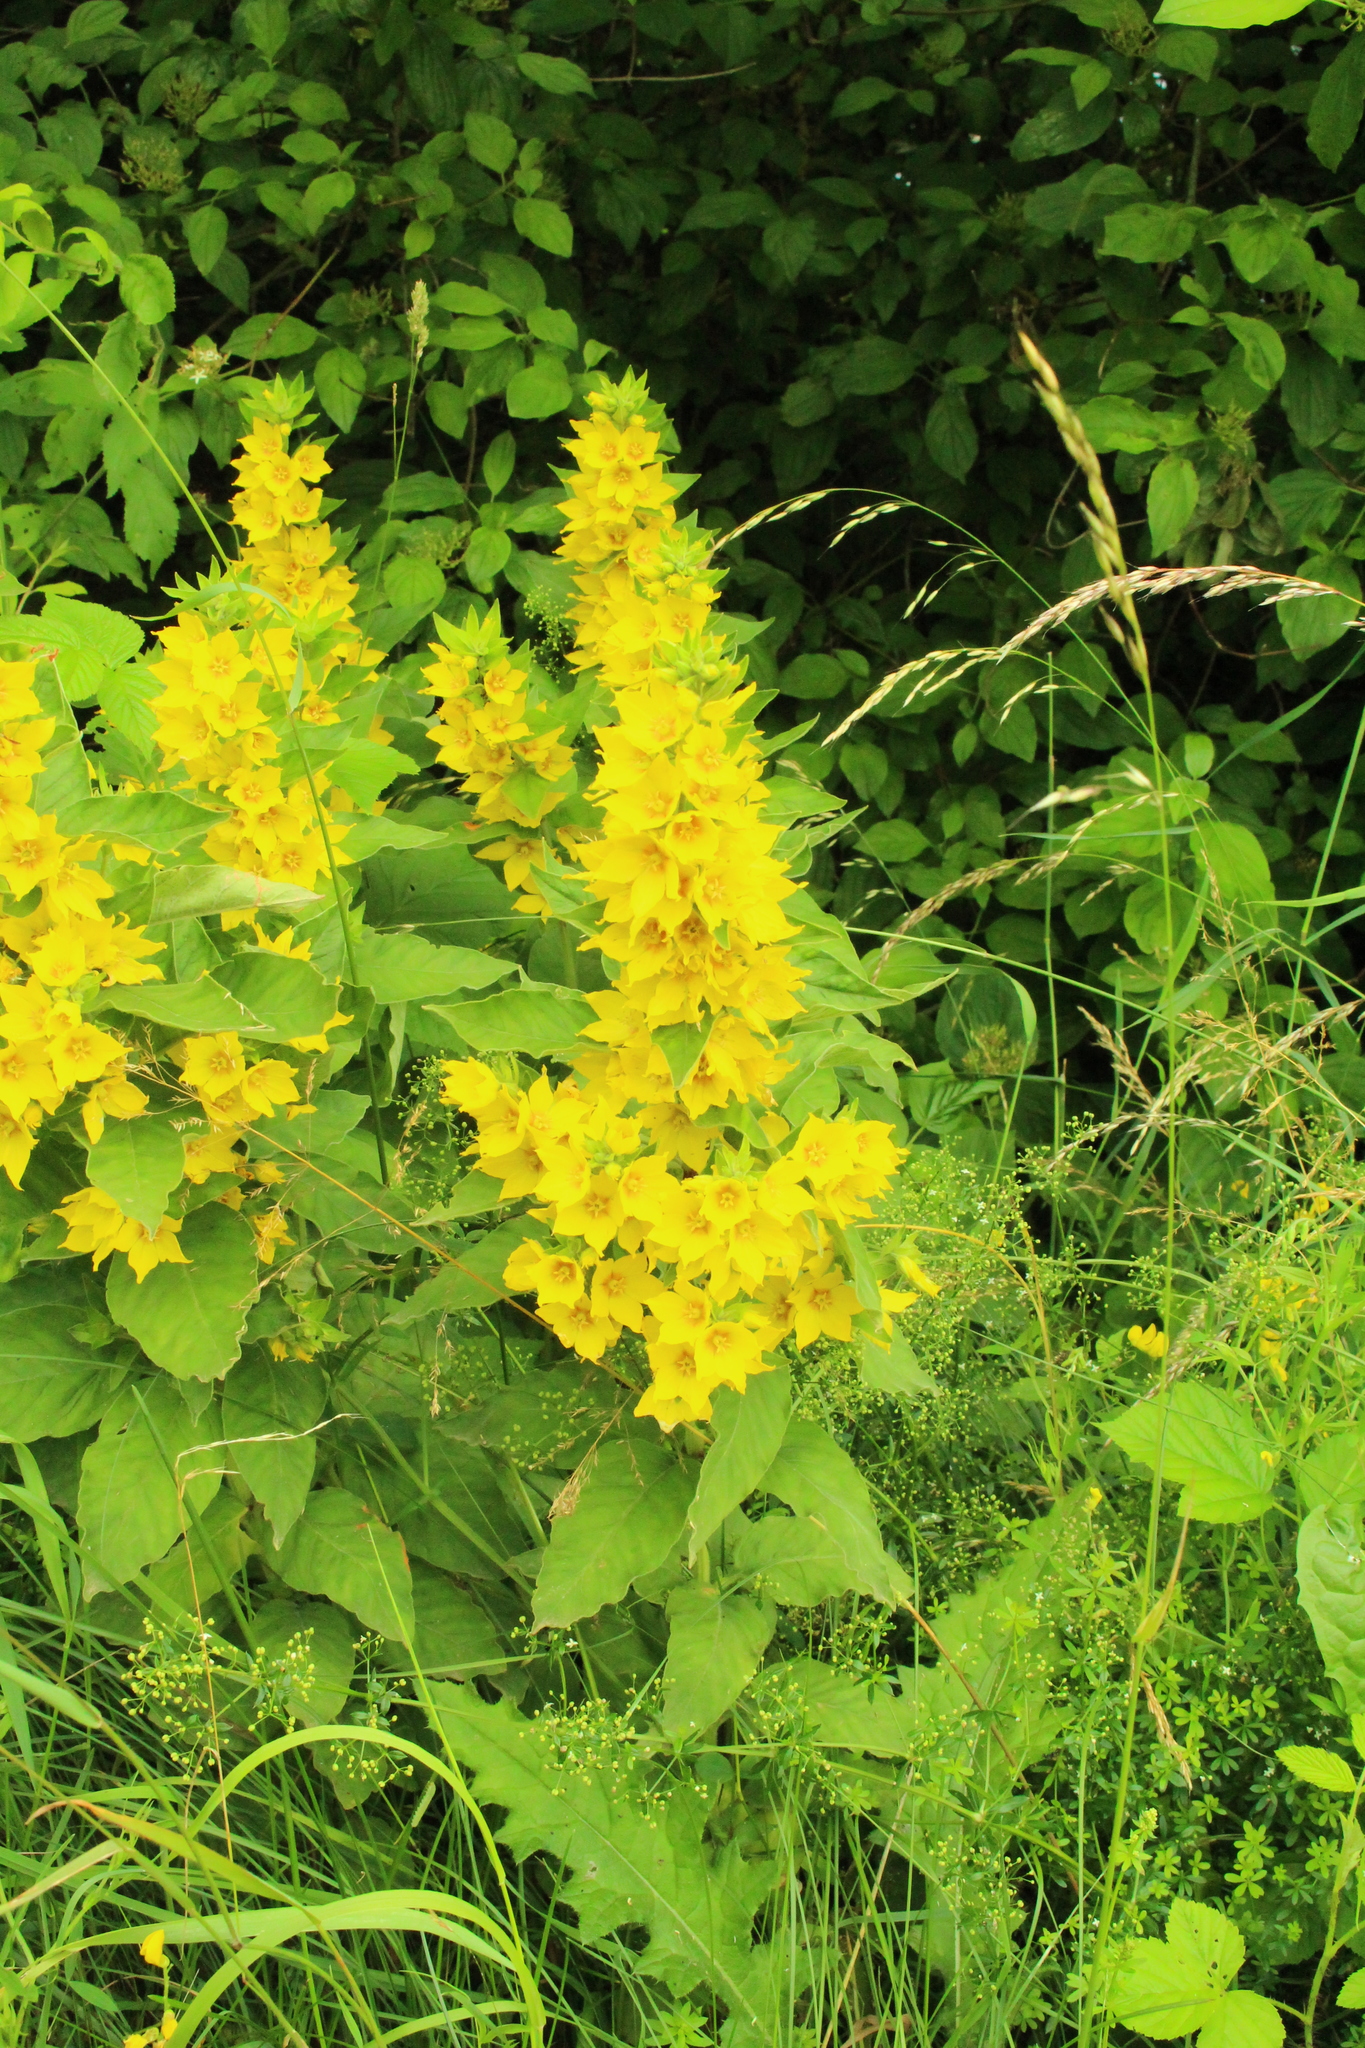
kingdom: Plantae
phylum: Tracheophyta
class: Magnoliopsida
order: Ericales
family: Primulaceae
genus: Lysimachia
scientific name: Lysimachia punctata
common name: Dotted loosestrife
